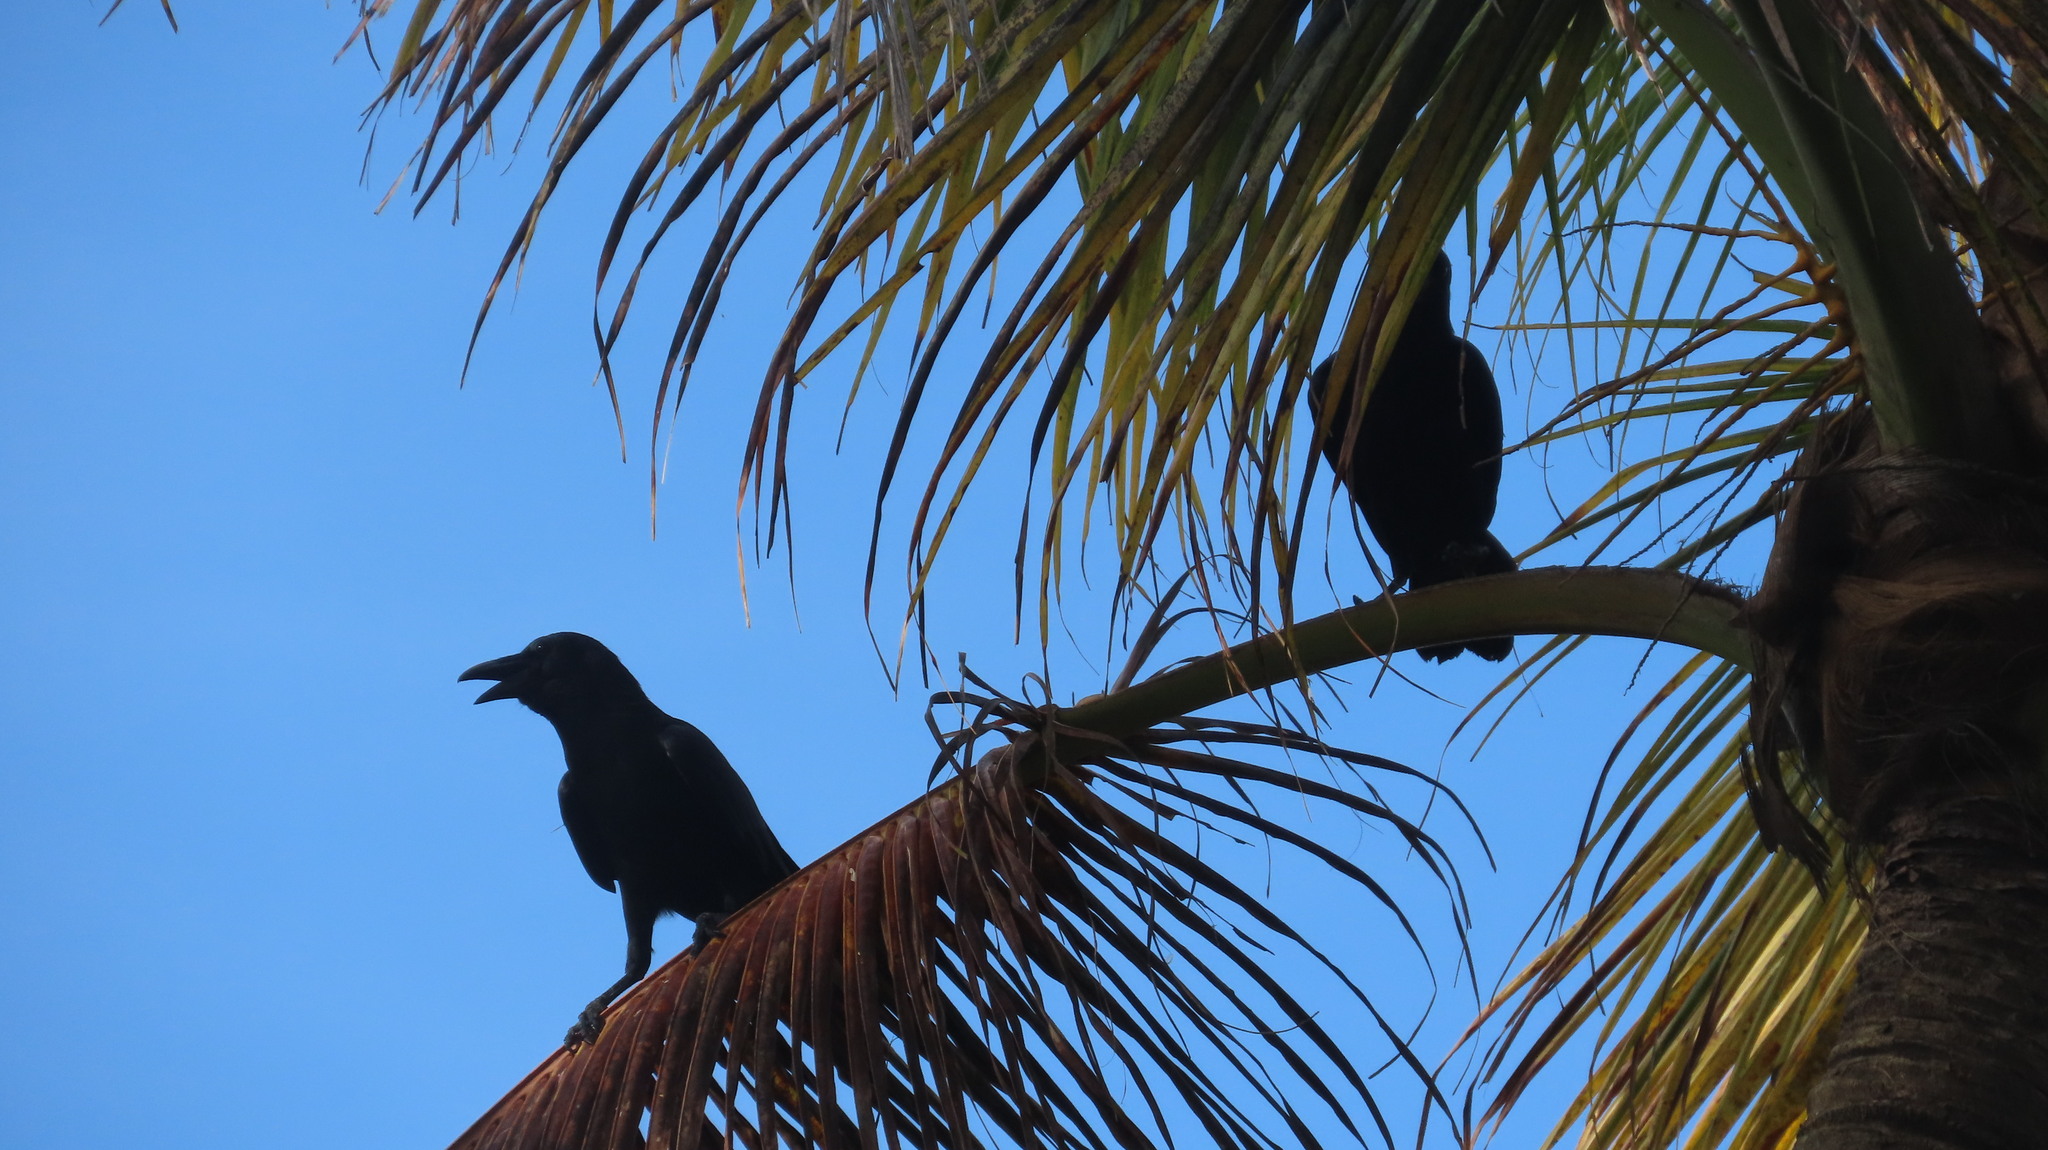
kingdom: Animalia
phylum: Chordata
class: Aves
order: Passeriformes
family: Corvidae
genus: Corvus
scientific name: Corvus splendens
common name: House crow
